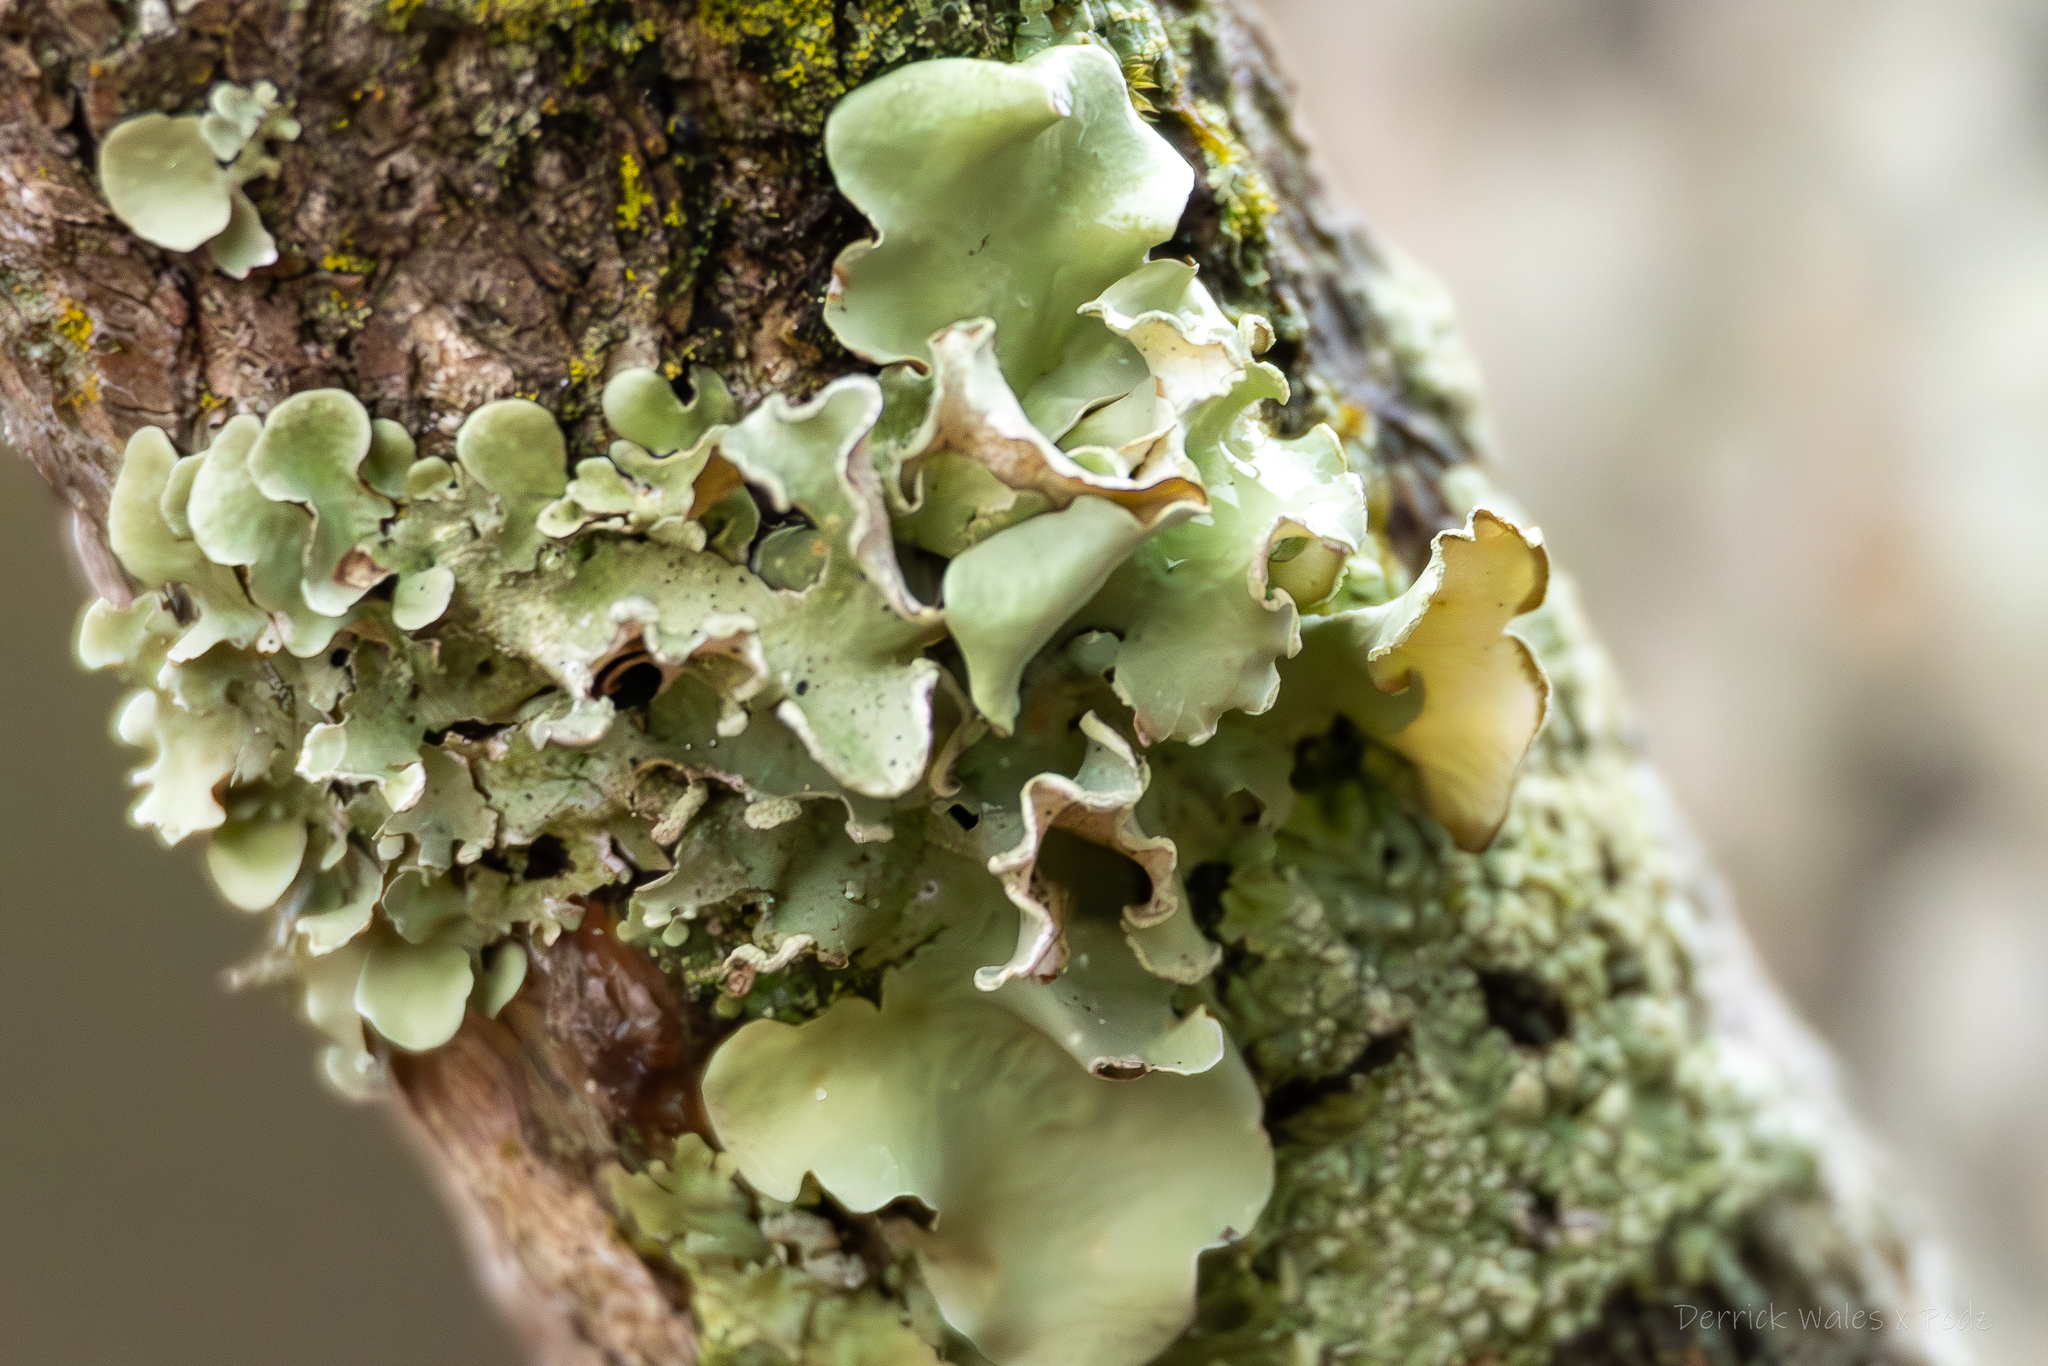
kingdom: Fungi
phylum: Ascomycota
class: Lecanoromycetes
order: Lecanorales
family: Parmeliaceae
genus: Parmotrema
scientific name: Parmotrema austrosinense
